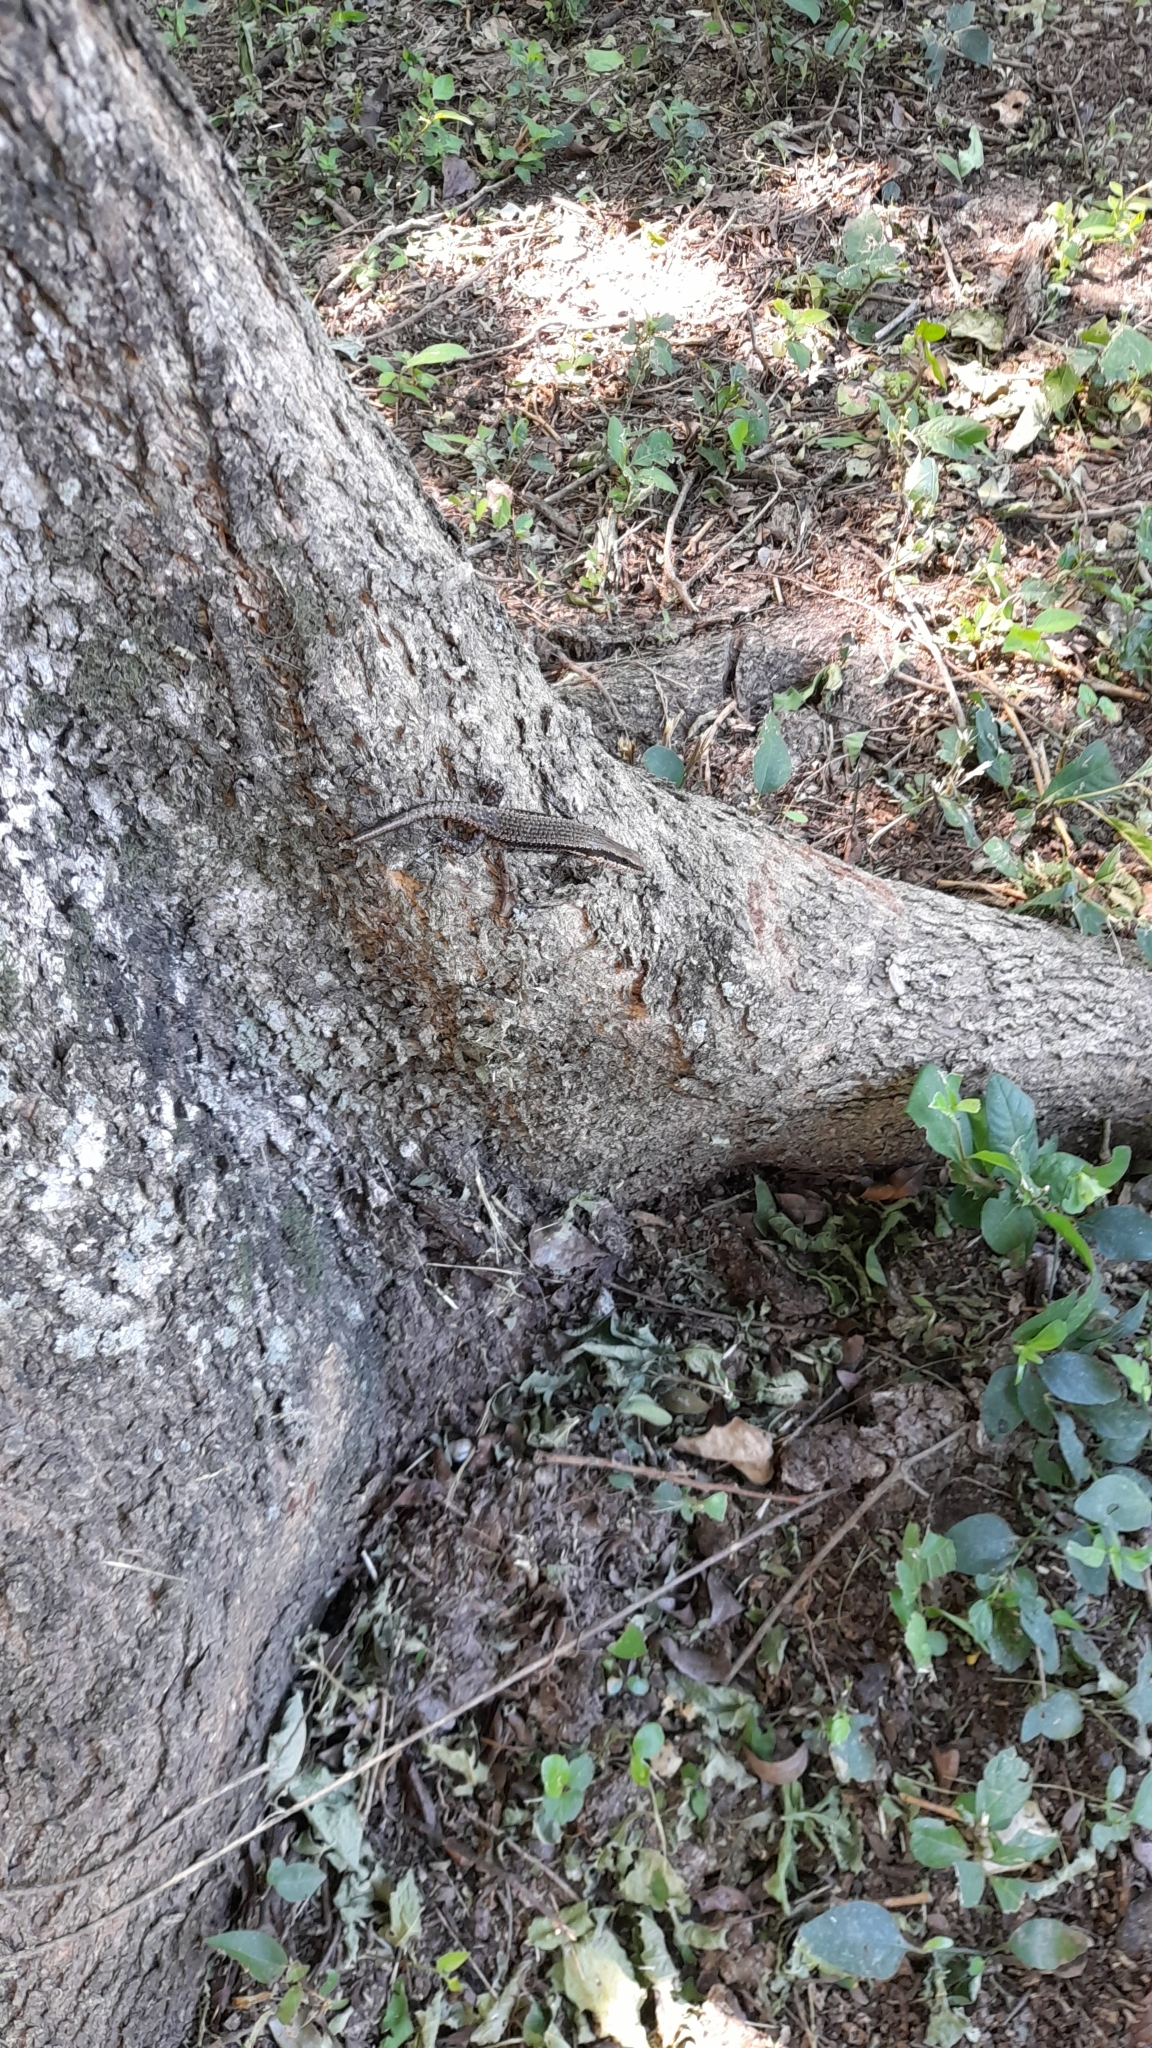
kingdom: Animalia
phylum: Chordata
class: Squamata
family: Scincidae
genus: Notomabuya
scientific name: Notomabuya frenata
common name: Cope's mabuya
